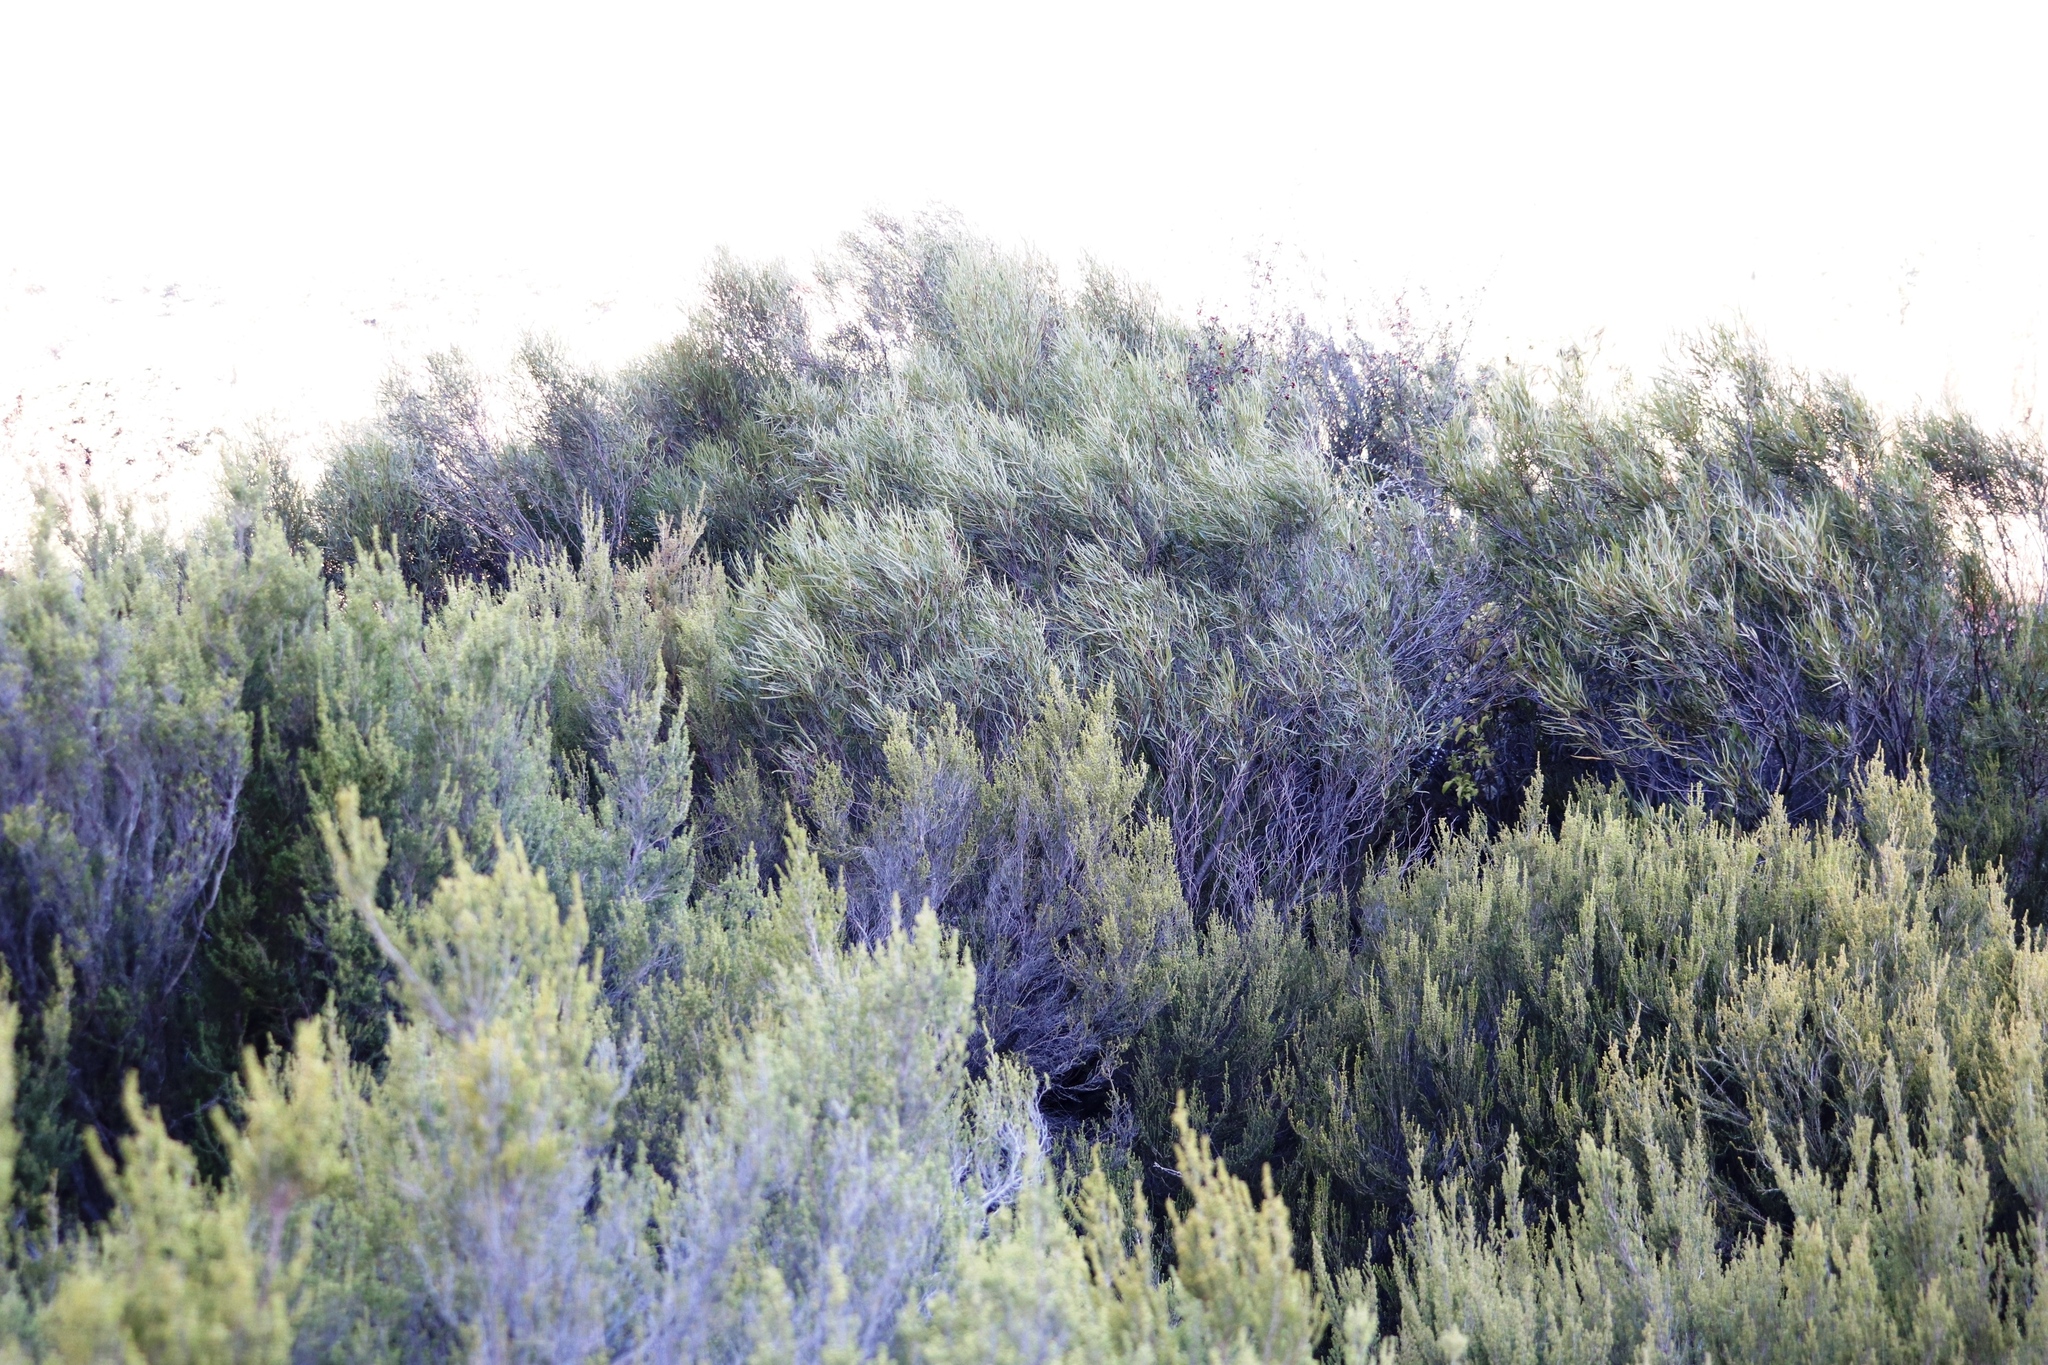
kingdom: Plantae
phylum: Tracheophyta
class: Magnoliopsida
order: Sapindales
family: Anacardiaceae
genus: Searsia
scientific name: Searsia erosa
